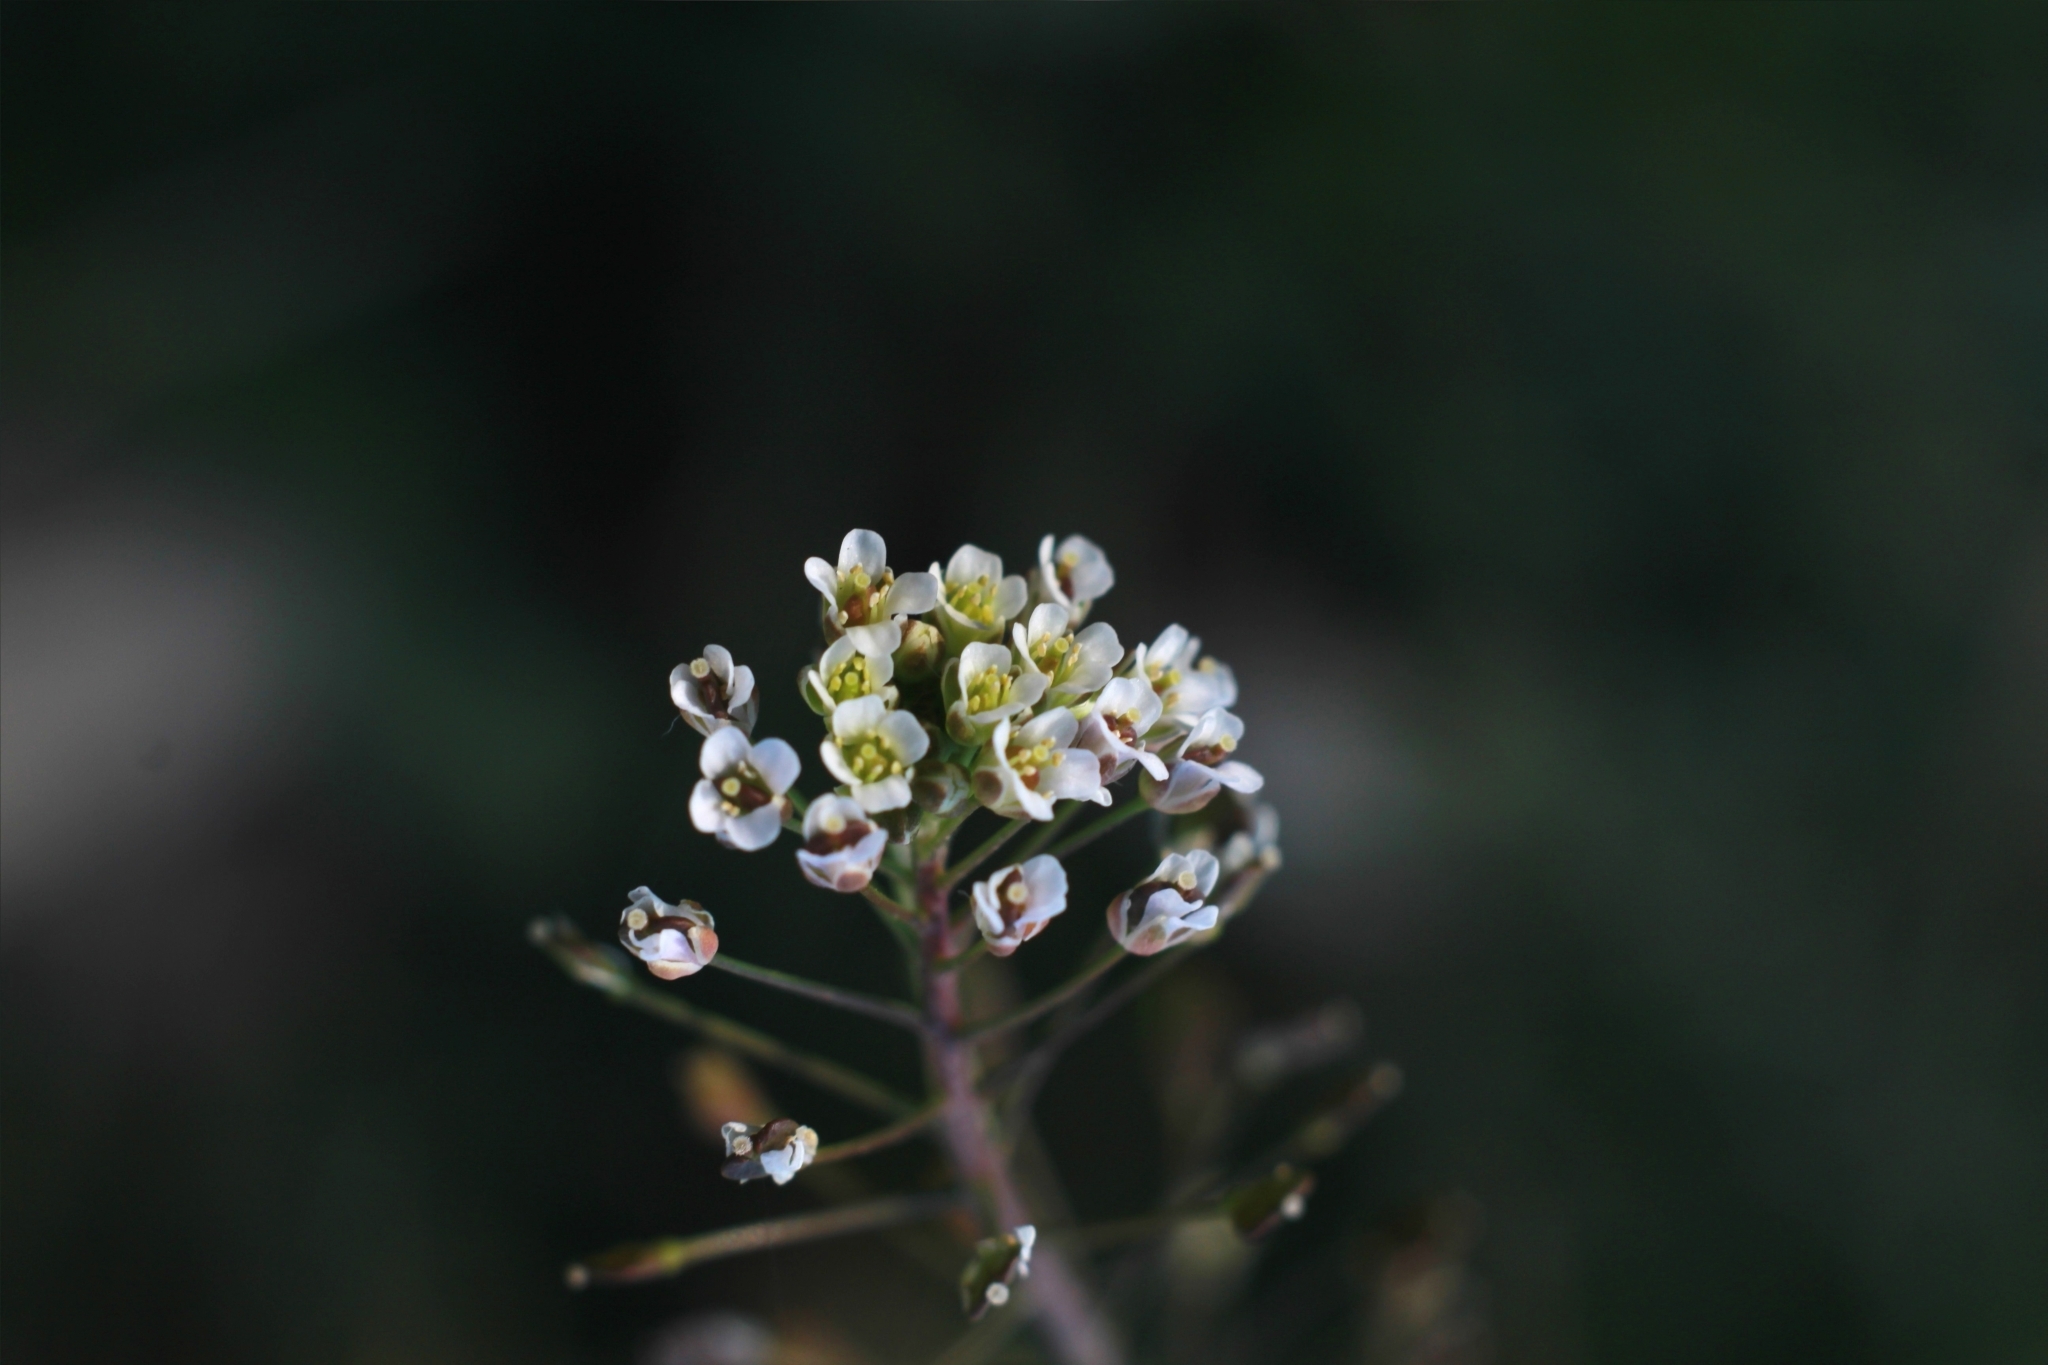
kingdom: Plantae
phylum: Tracheophyta
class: Magnoliopsida
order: Brassicales
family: Brassicaceae
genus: Capsella
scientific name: Capsella bursa-pastoris
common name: Shepherd's purse
